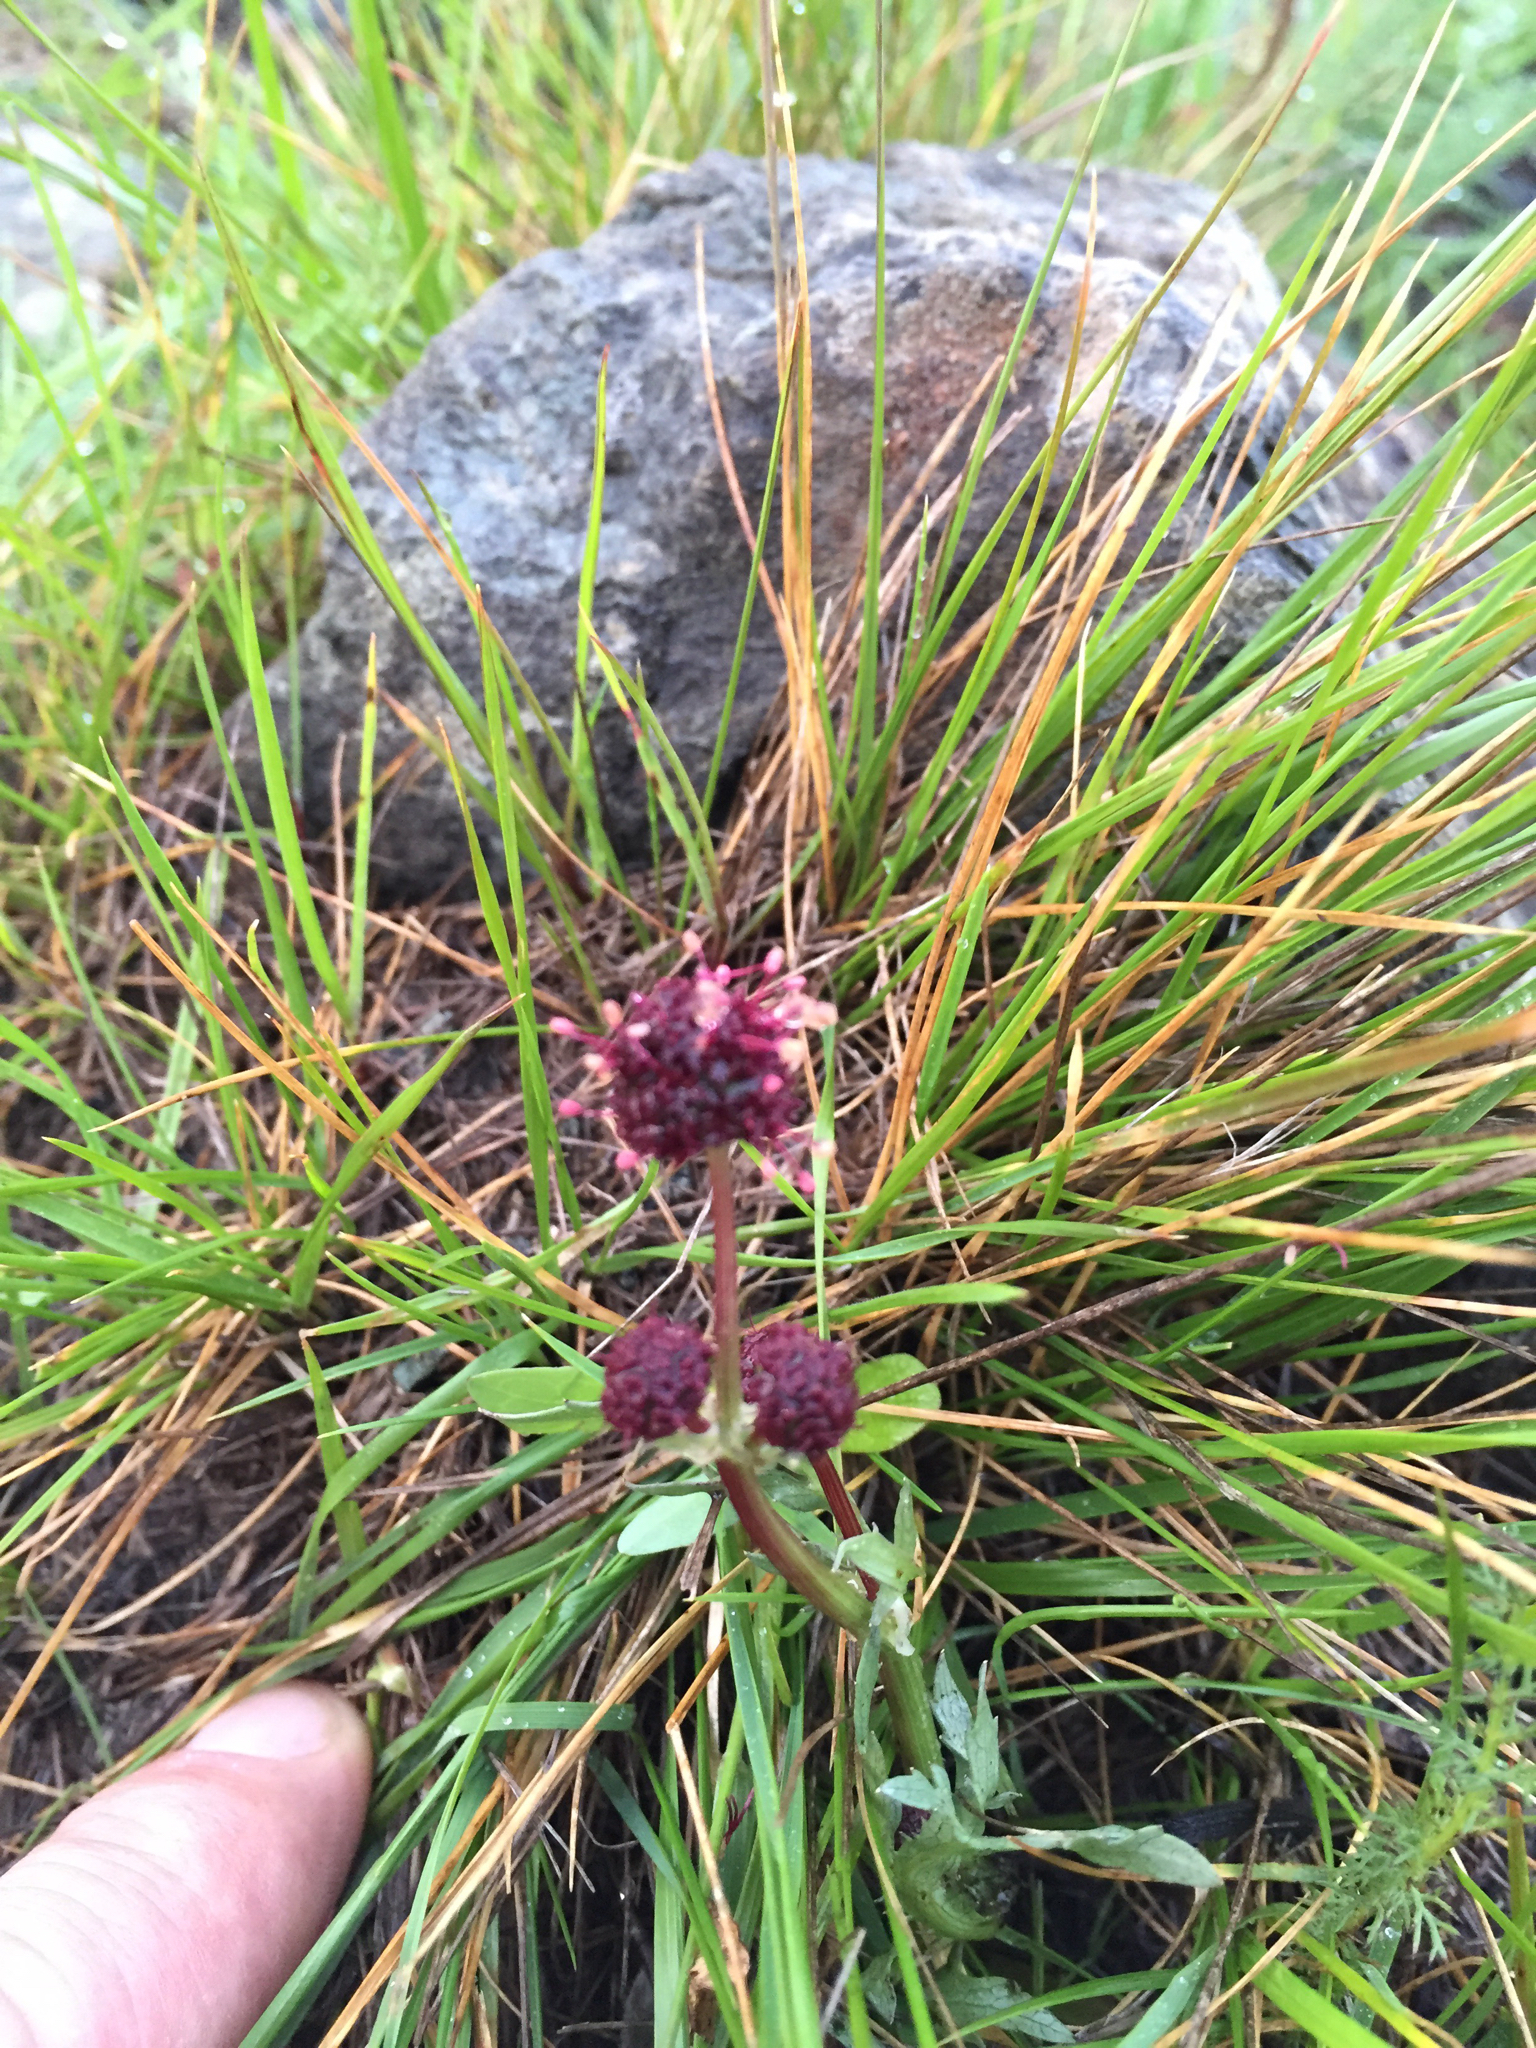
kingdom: Plantae
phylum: Tracheophyta
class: Magnoliopsida
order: Apiales
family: Apiaceae
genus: Sanicula
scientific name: Sanicula bipinnatifida
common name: Shoe-buttons
